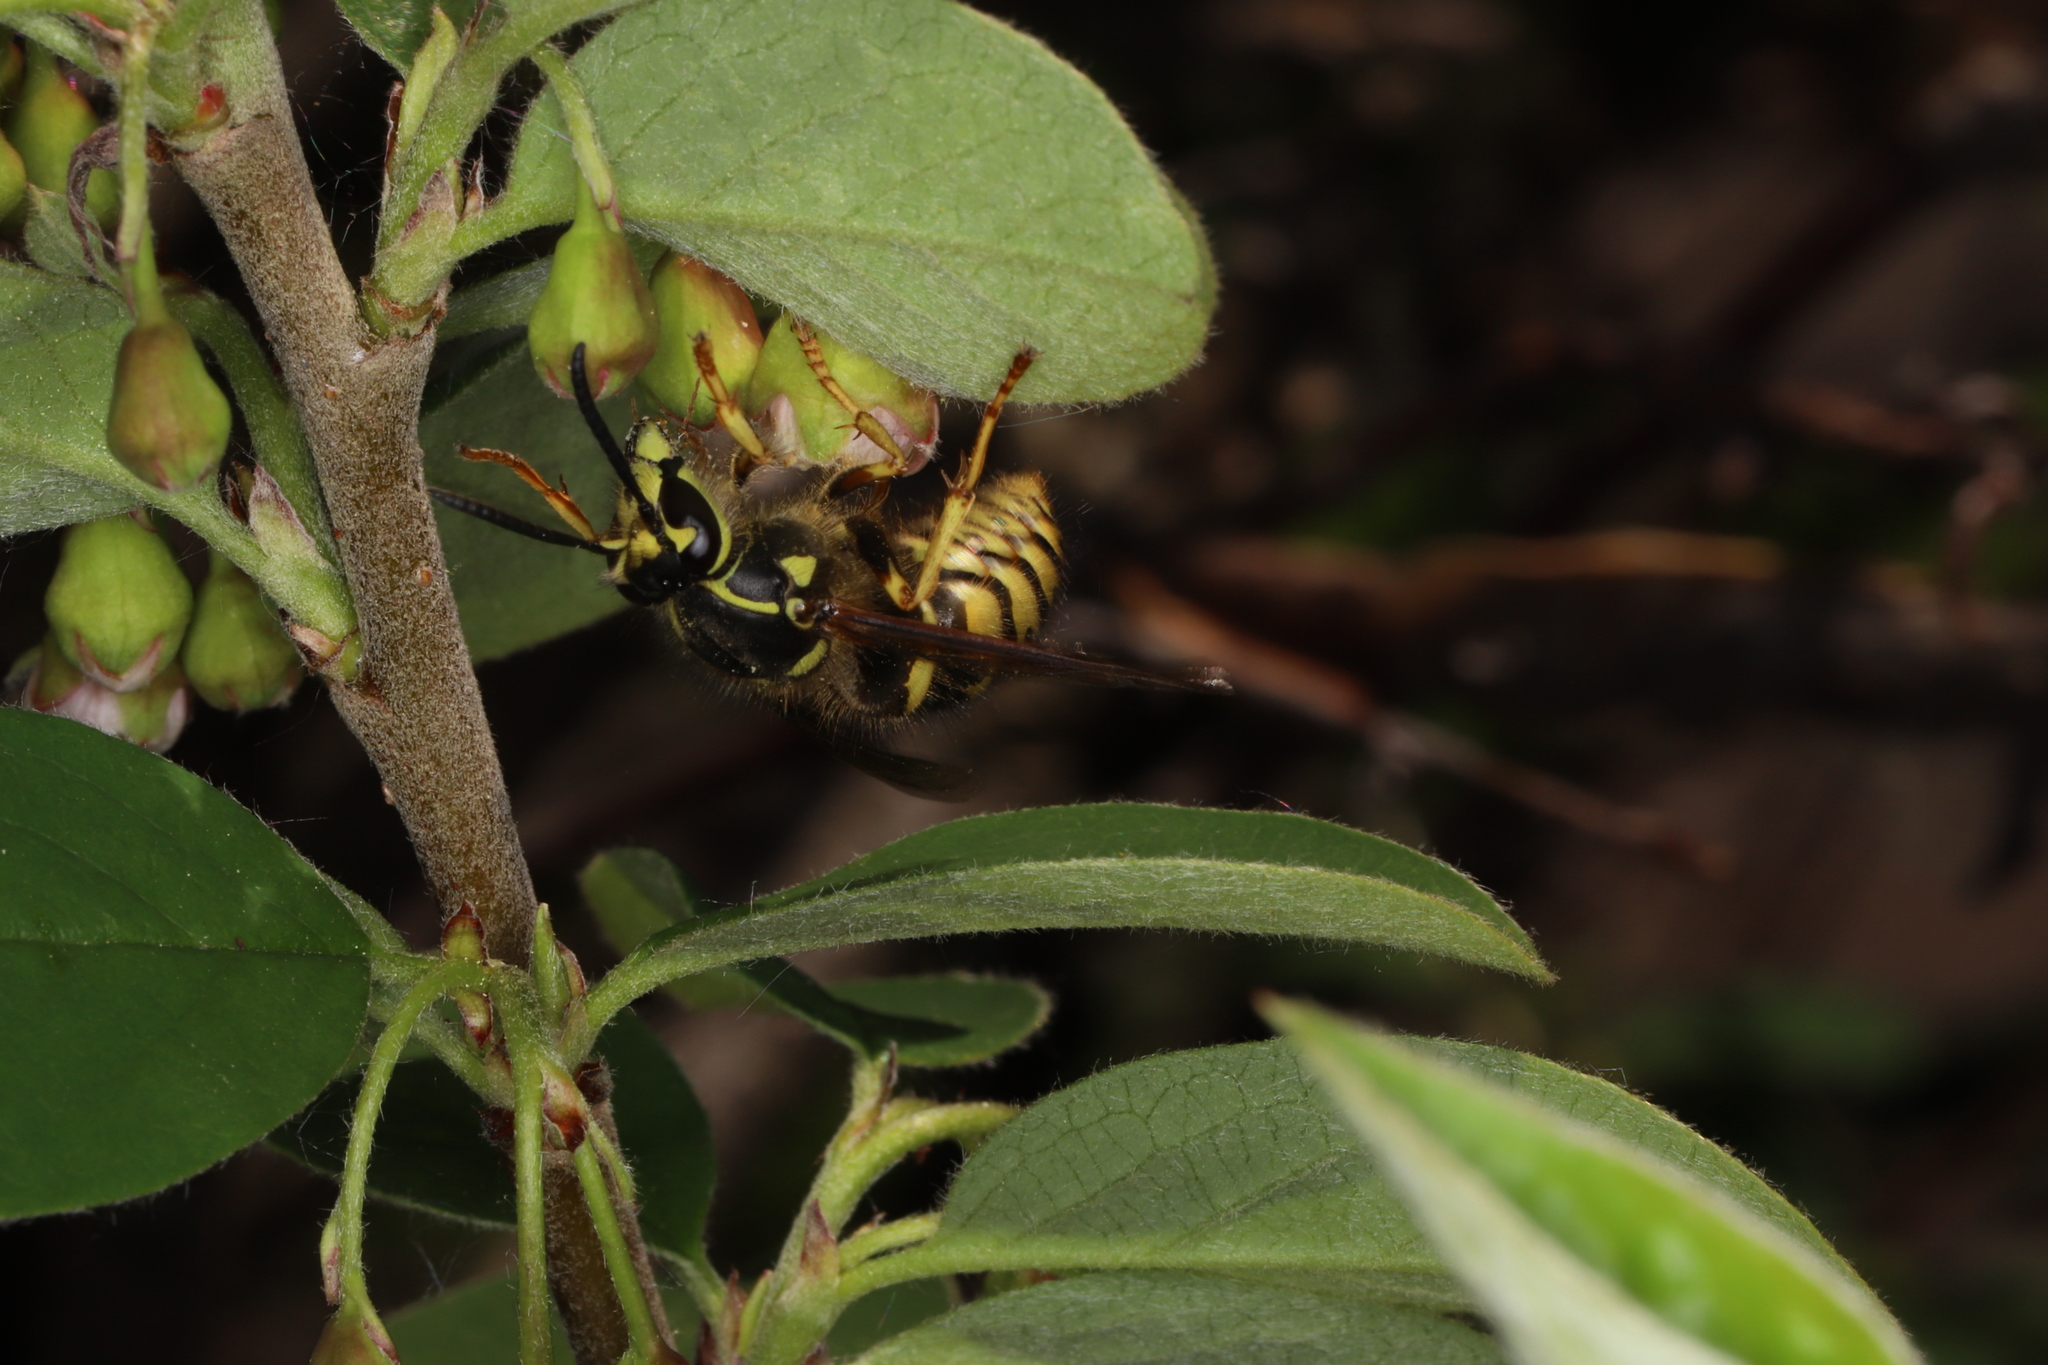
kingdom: Animalia
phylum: Arthropoda
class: Insecta
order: Hymenoptera
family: Vespidae
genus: Dolichovespula
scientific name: Dolichovespula arenaria
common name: Aerial yellowjacket
